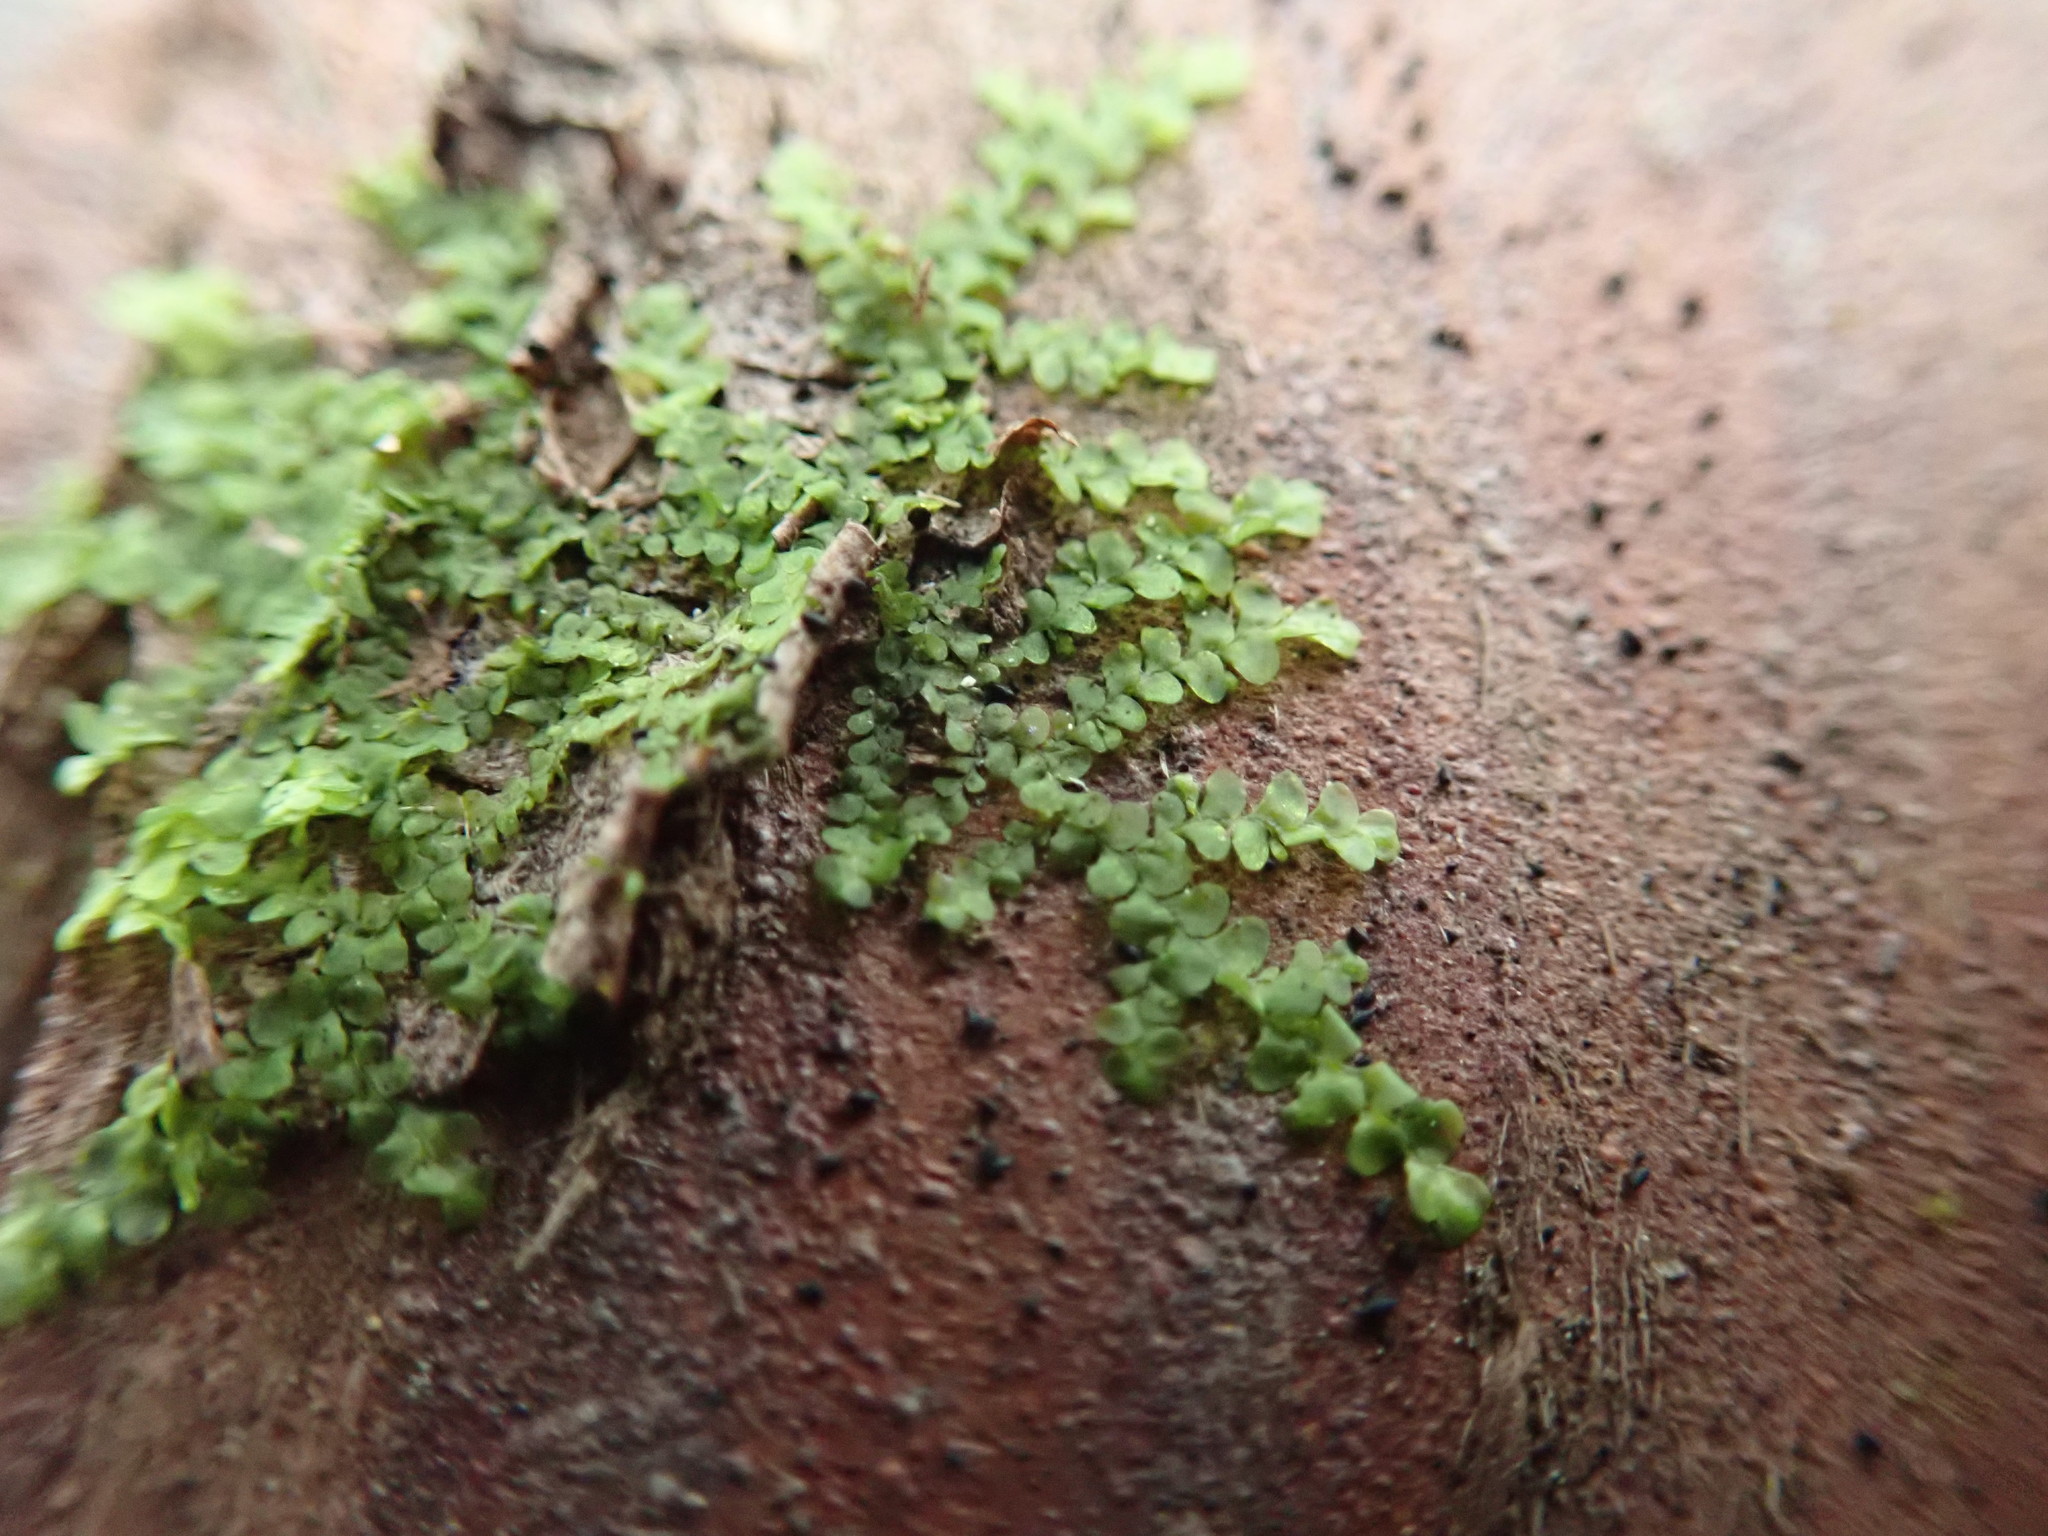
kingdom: Plantae
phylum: Marchantiophyta
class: Jungermanniopsida
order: Porellales
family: Radulaceae
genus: Radula
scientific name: Radula complanata
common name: Flat-leaved scalewort
